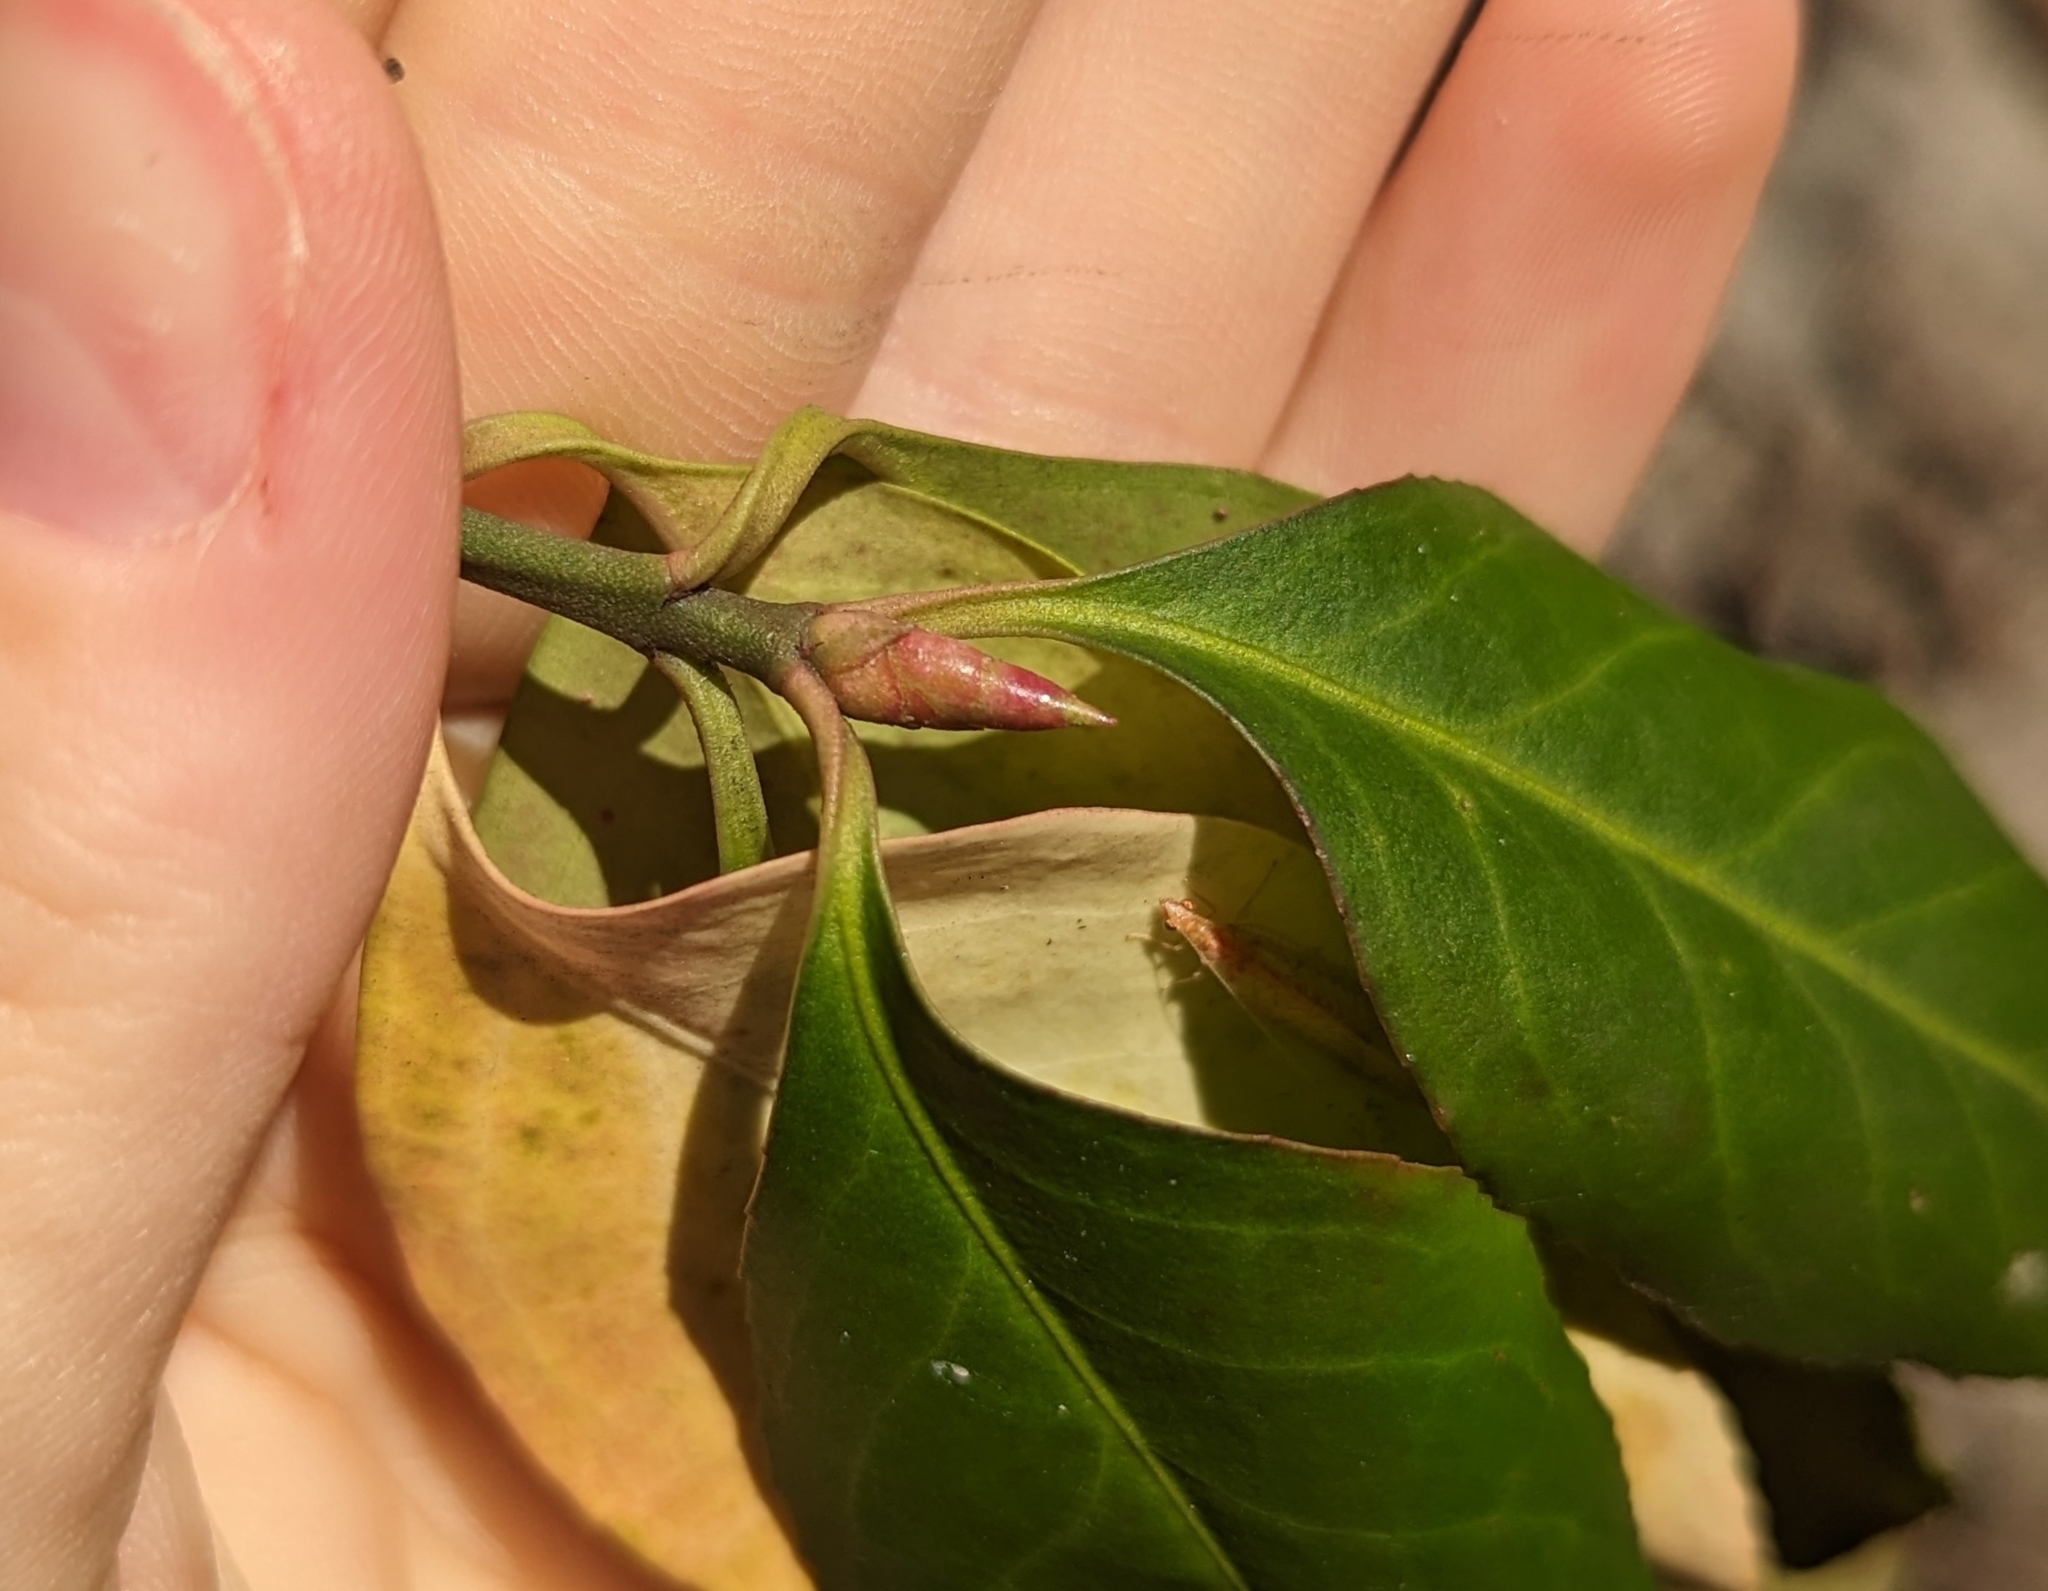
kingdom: Plantae
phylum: Tracheophyta
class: Magnoliopsida
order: Celastrales
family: Celastraceae
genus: Euonymus
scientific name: Euonymus fortunei
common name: Climbing euonymus
